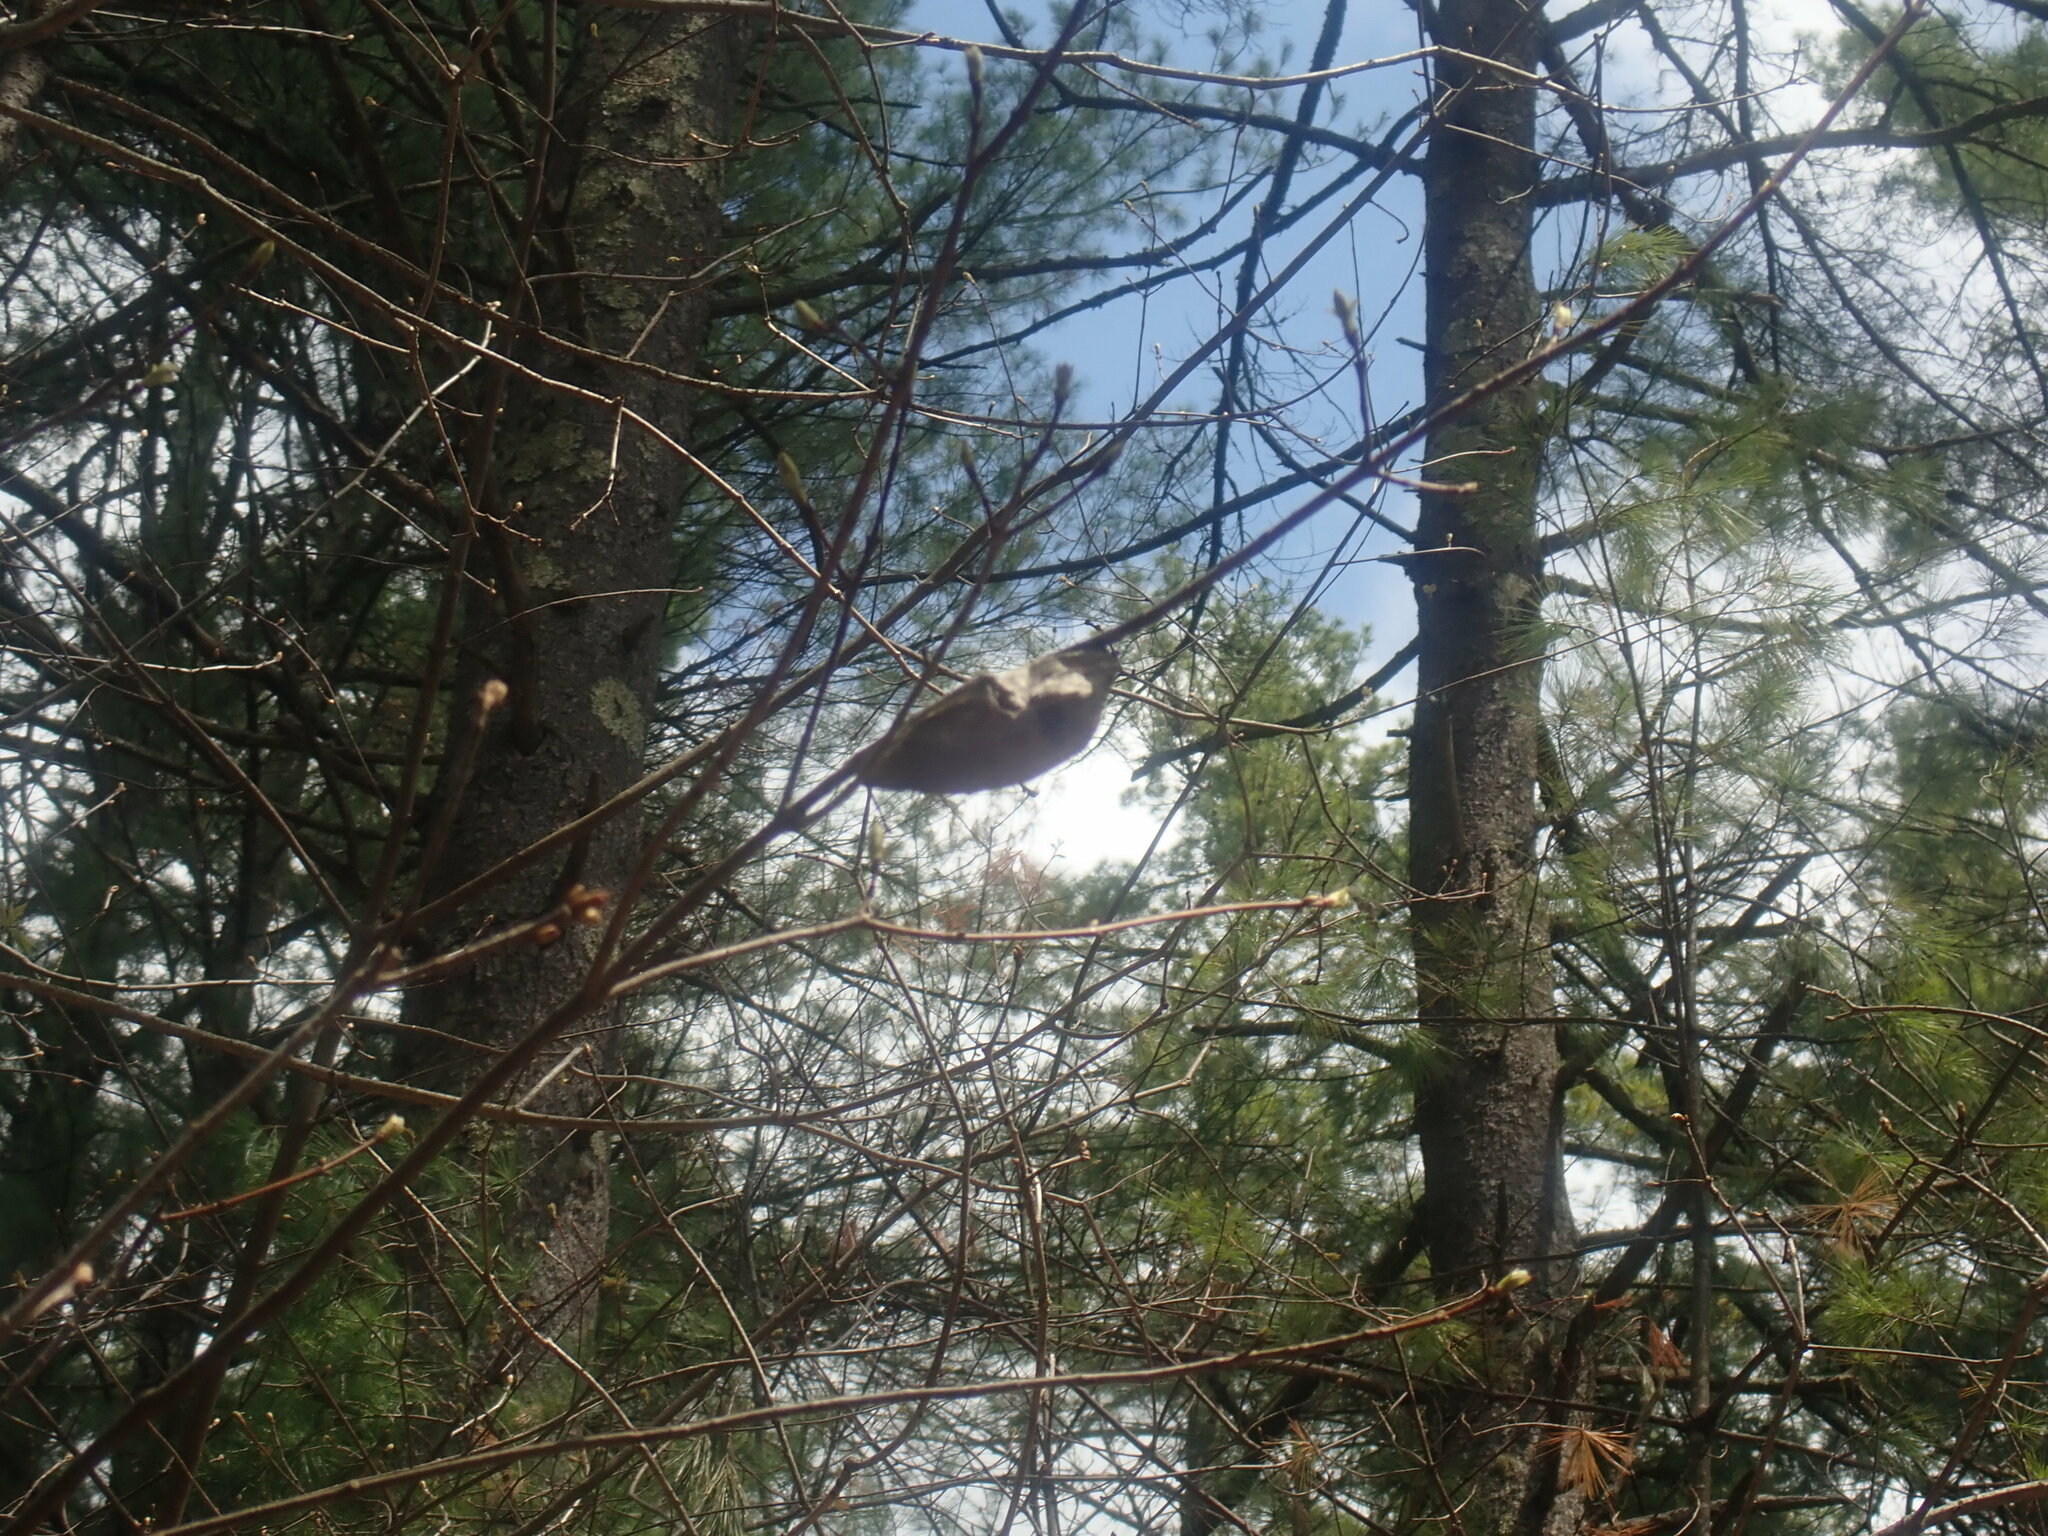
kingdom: Animalia
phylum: Arthropoda
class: Insecta
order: Lepidoptera
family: Saturniidae
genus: Hyalophora
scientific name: Hyalophora cecropia
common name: Cecropia silkmoth
